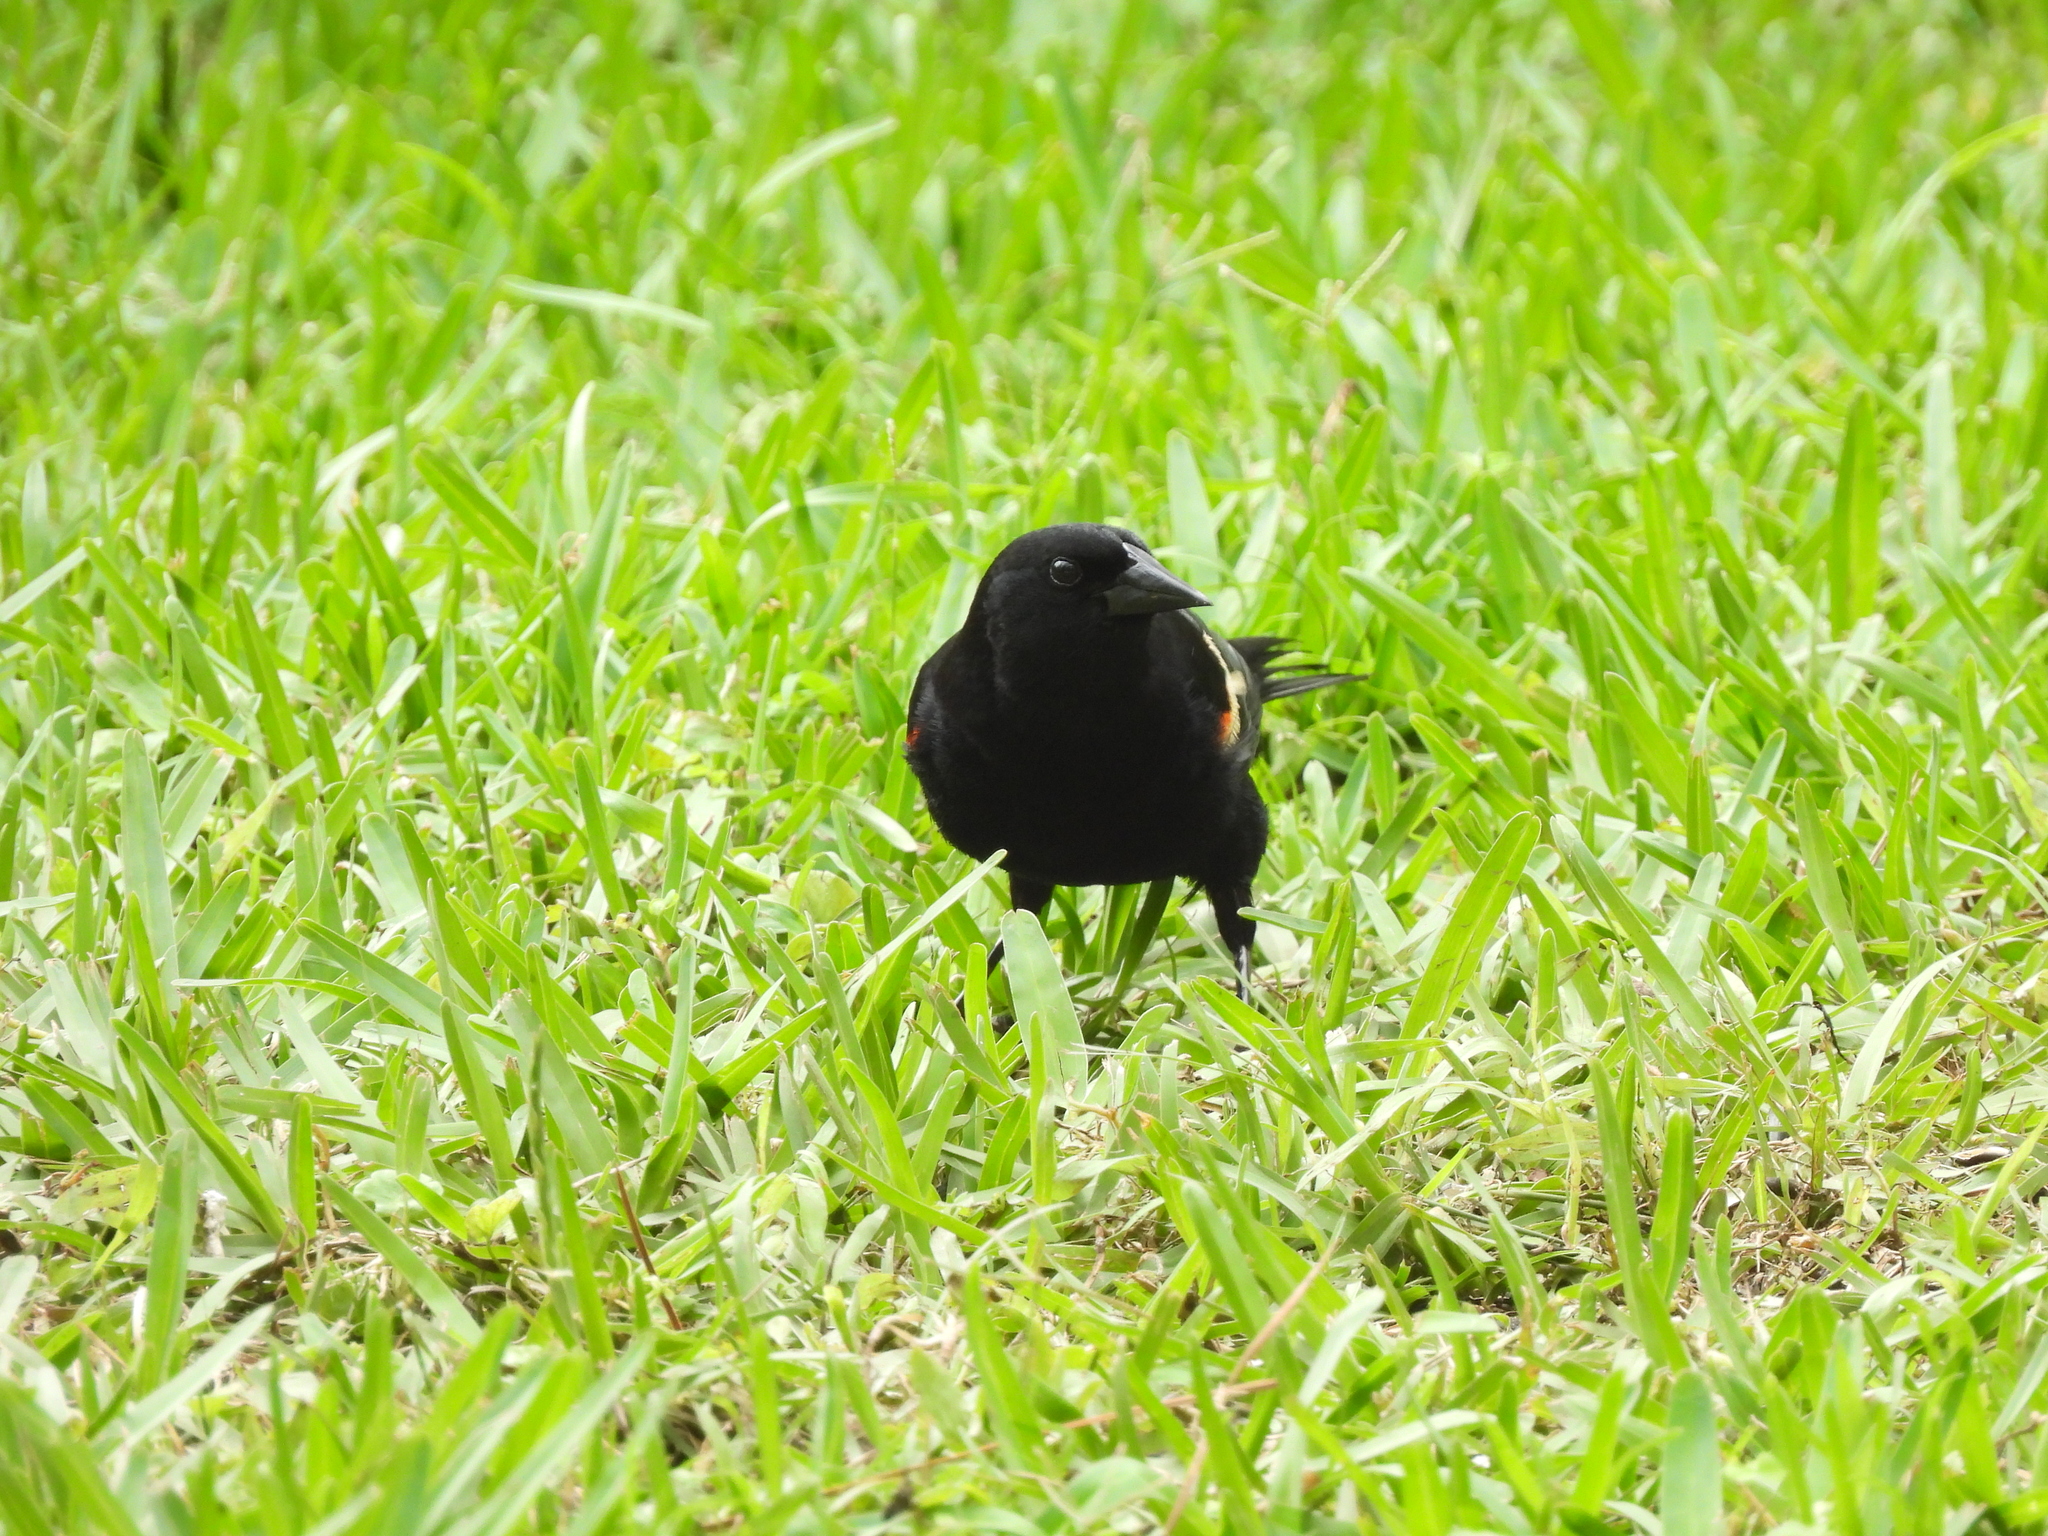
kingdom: Animalia
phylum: Chordata
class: Aves
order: Passeriformes
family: Icteridae
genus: Agelaius
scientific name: Agelaius phoeniceus
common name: Red-winged blackbird
